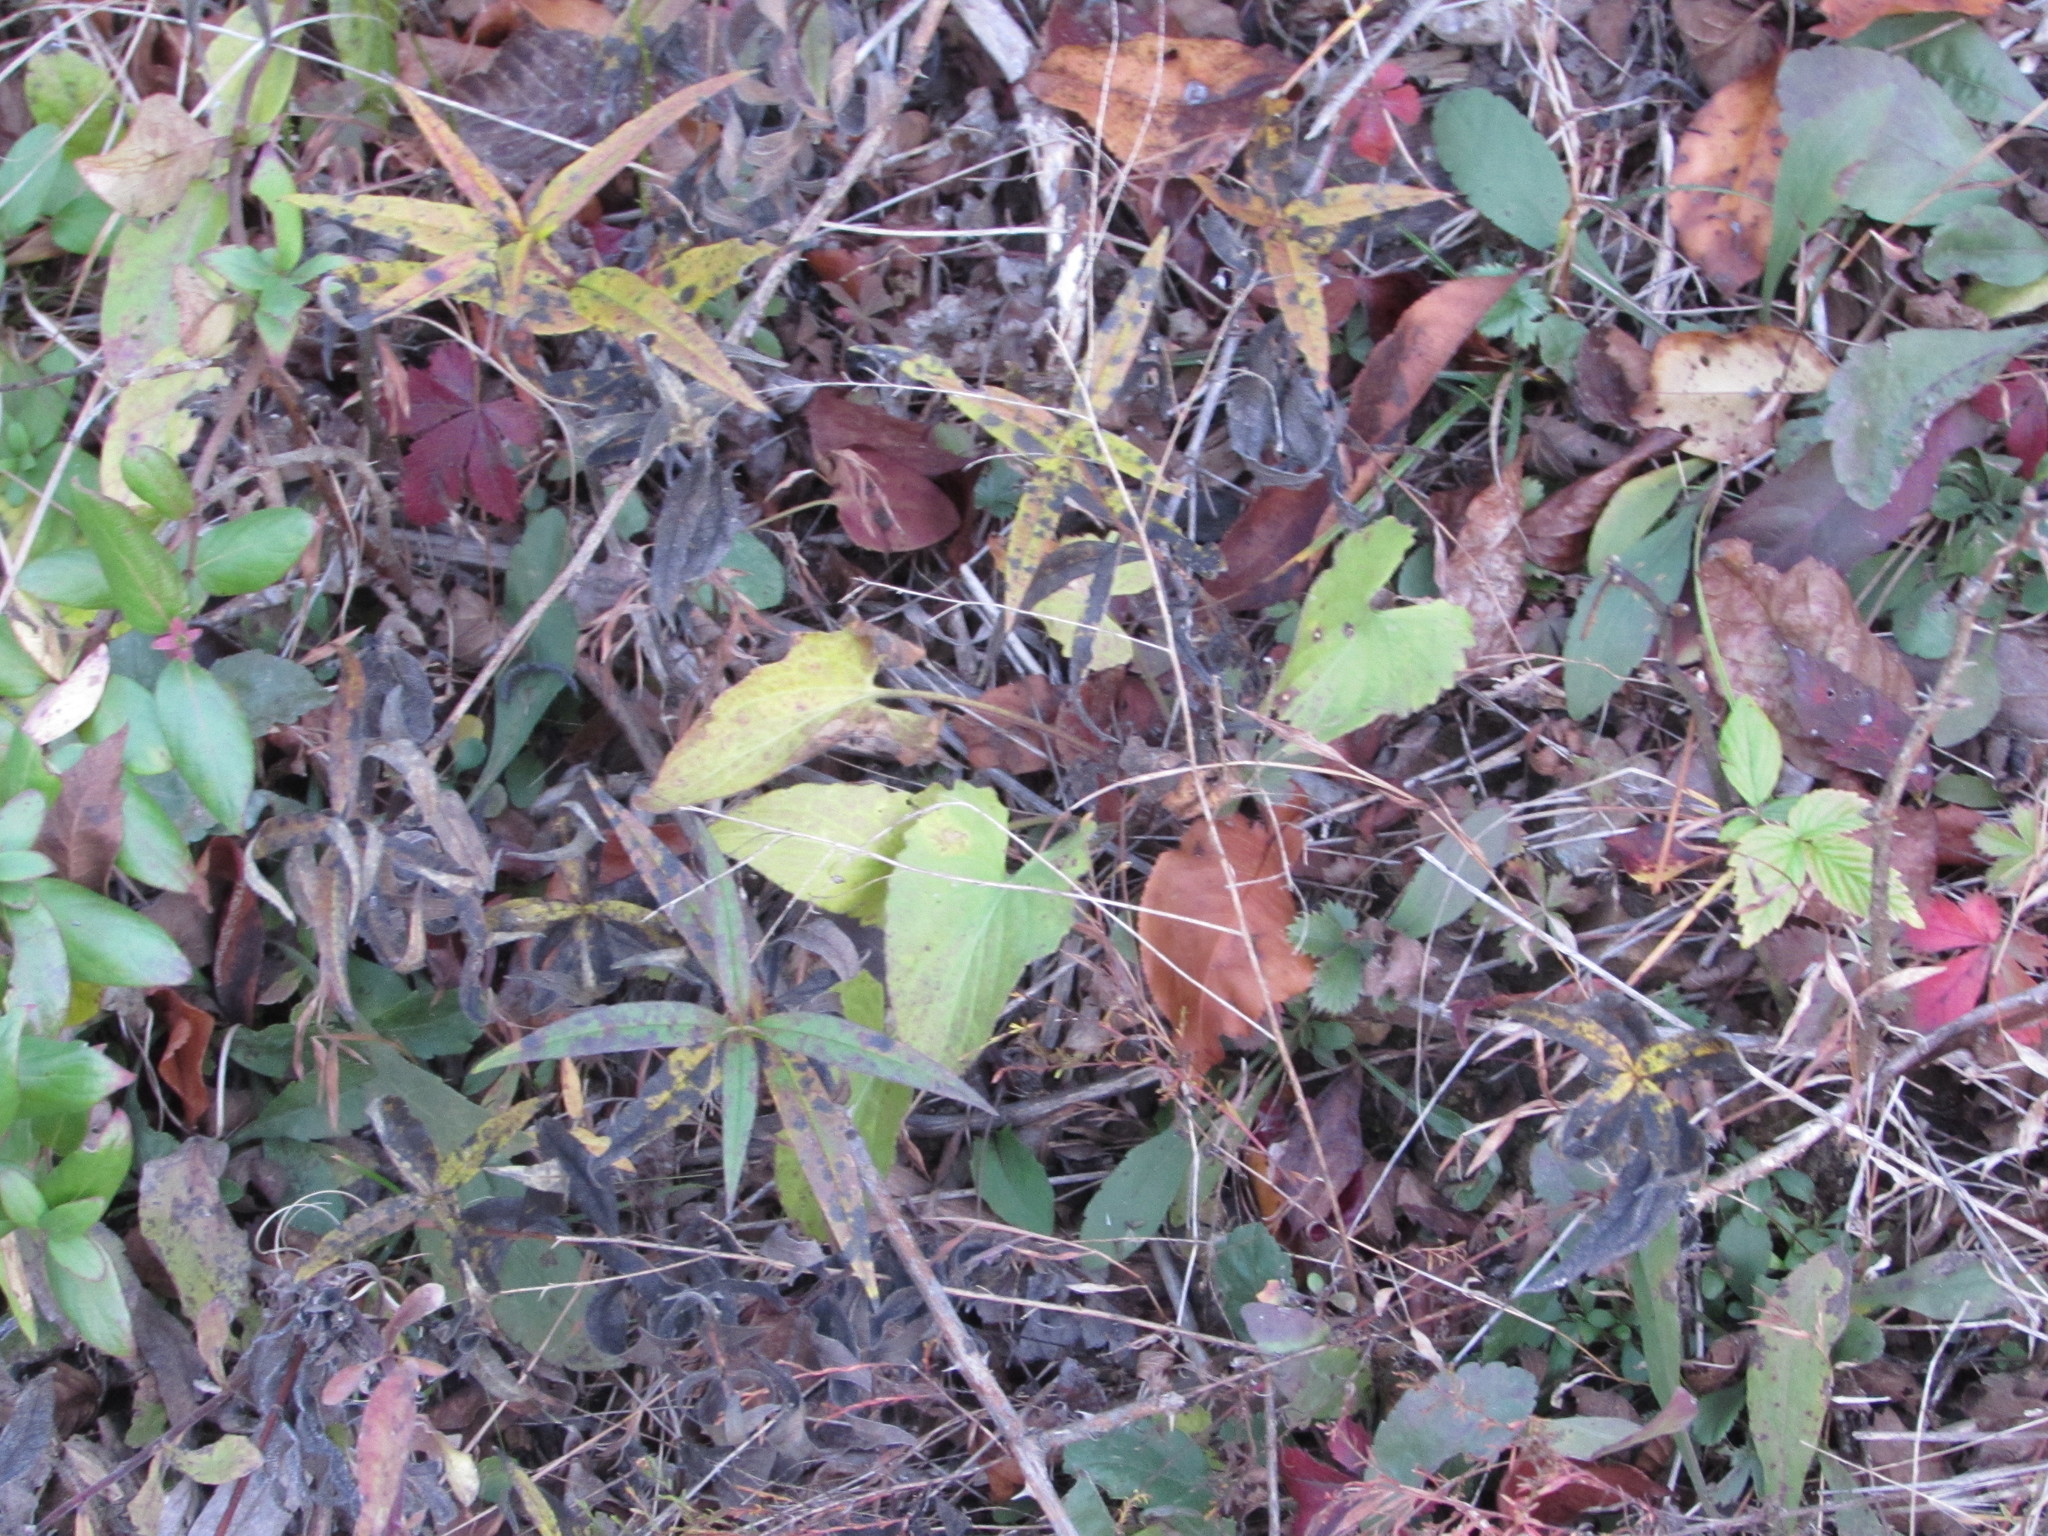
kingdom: Plantae
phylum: Tracheophyta
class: Magnoliopsida
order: Malpighiales
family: Violaceae
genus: Viola
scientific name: Viola sagittata
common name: Arrowhead violet
